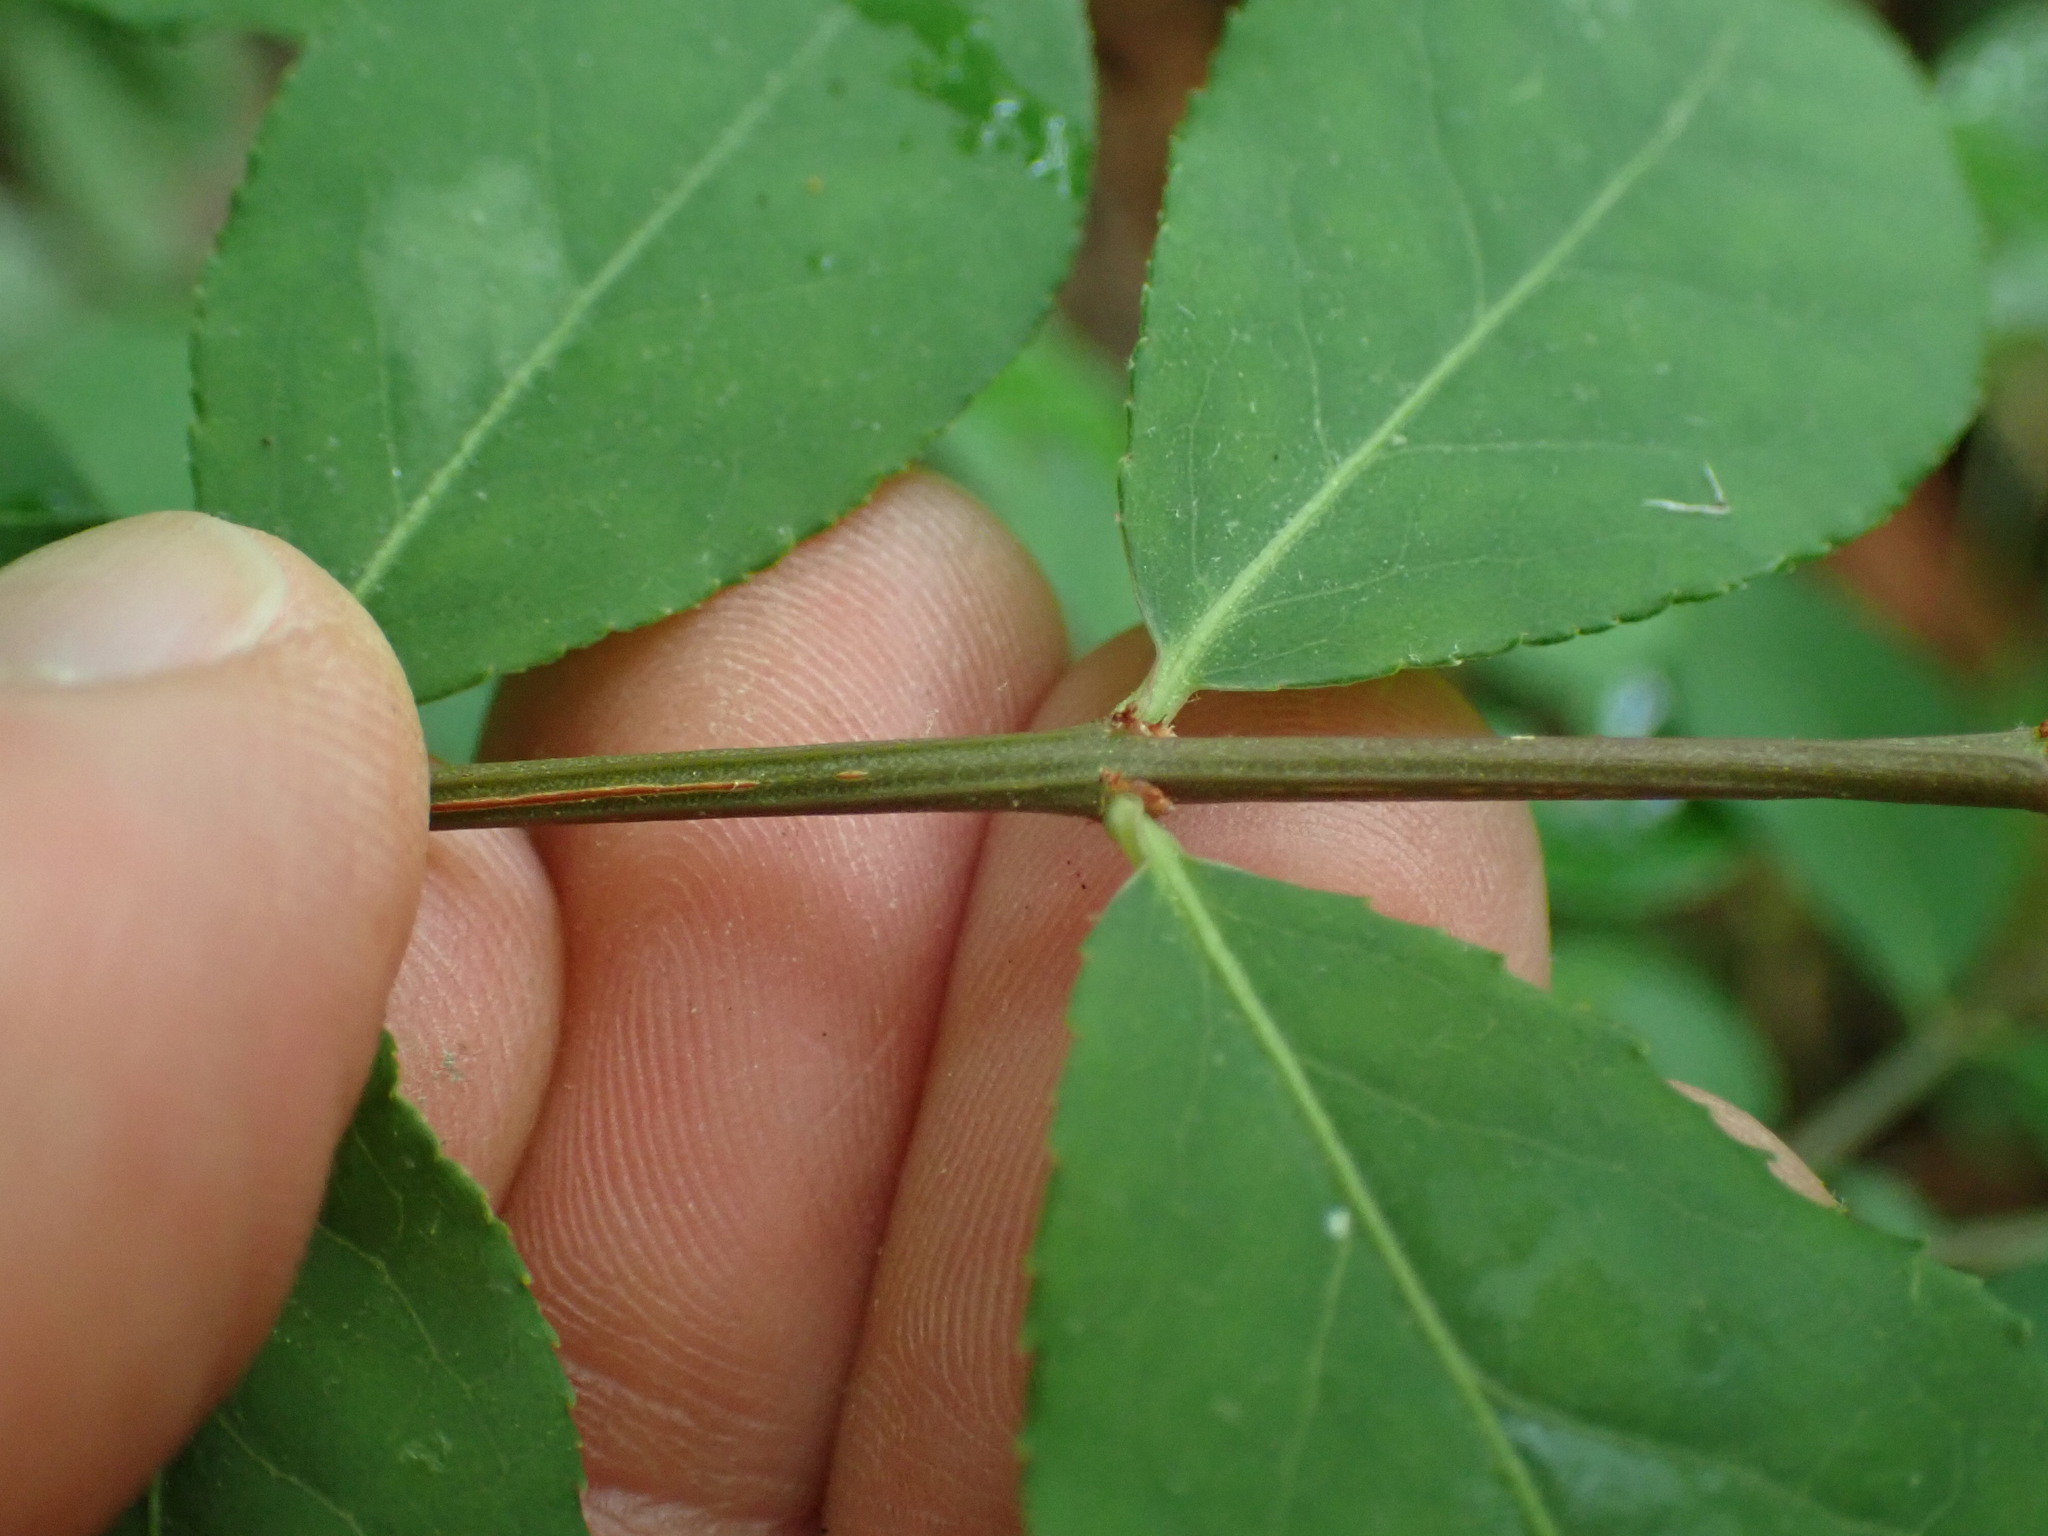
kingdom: Plantae
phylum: Tracheophyta
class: Magnoliopsida
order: Celastrales
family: Celastraceae
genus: Euonymus
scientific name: Euonymus alatus
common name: Winged euonymus
